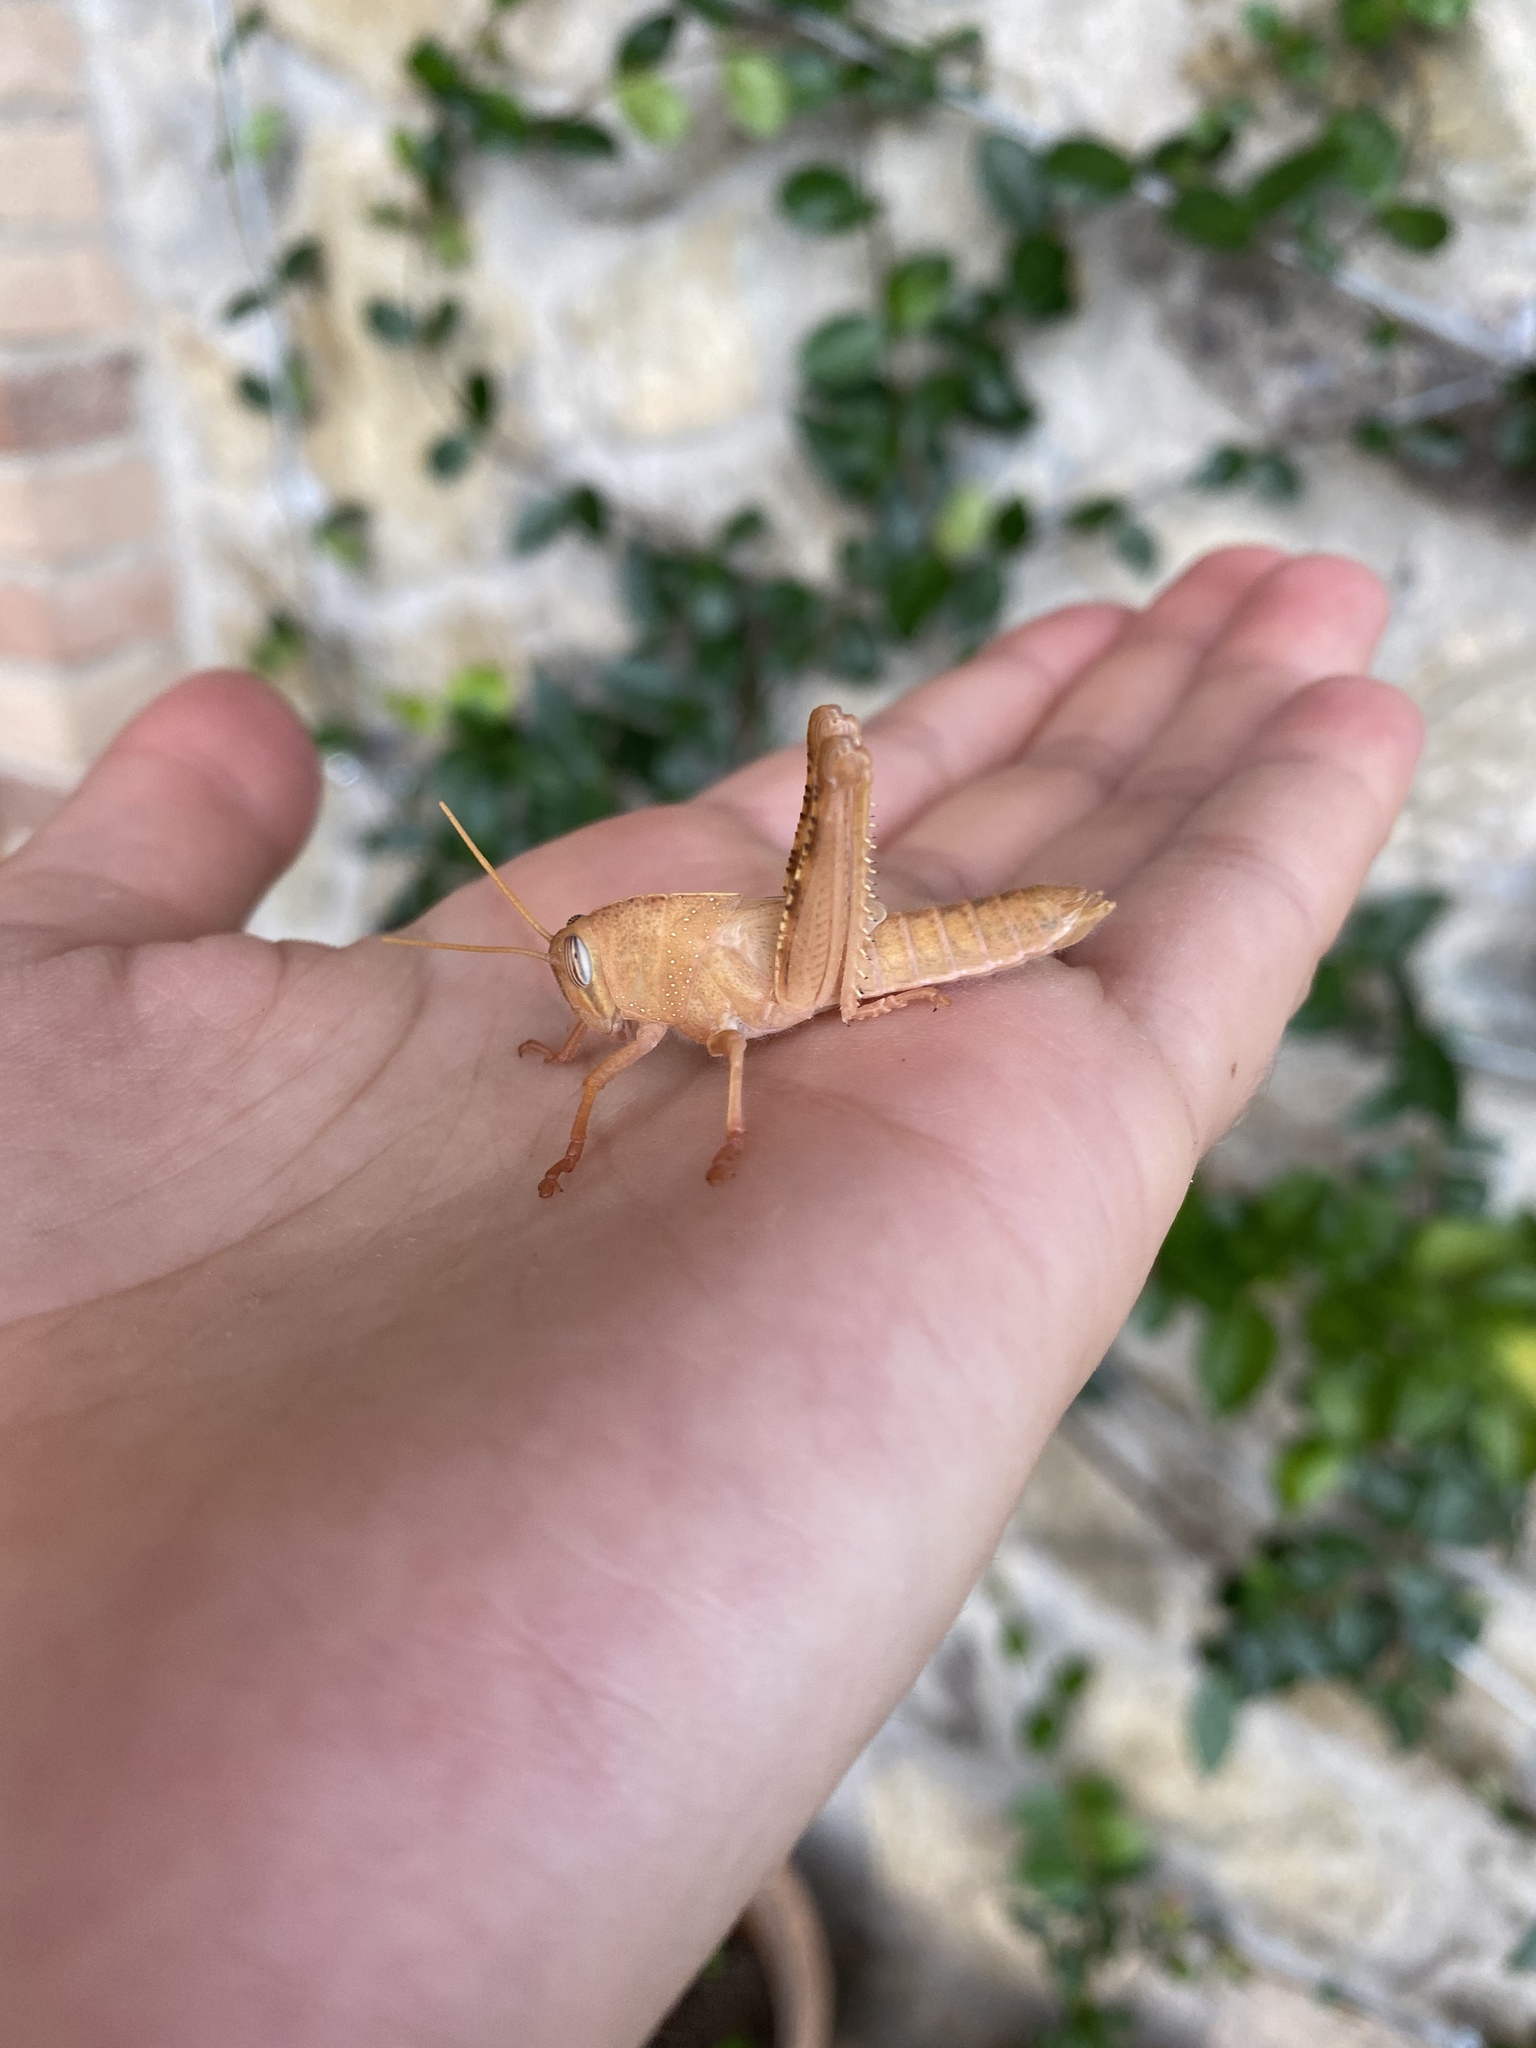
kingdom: Animalia
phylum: Arthropoda
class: Insecta
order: Orthoptera
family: Acrididae
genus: Anacridium
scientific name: Anacridium aegyptium
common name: Egyptian grasshopper
